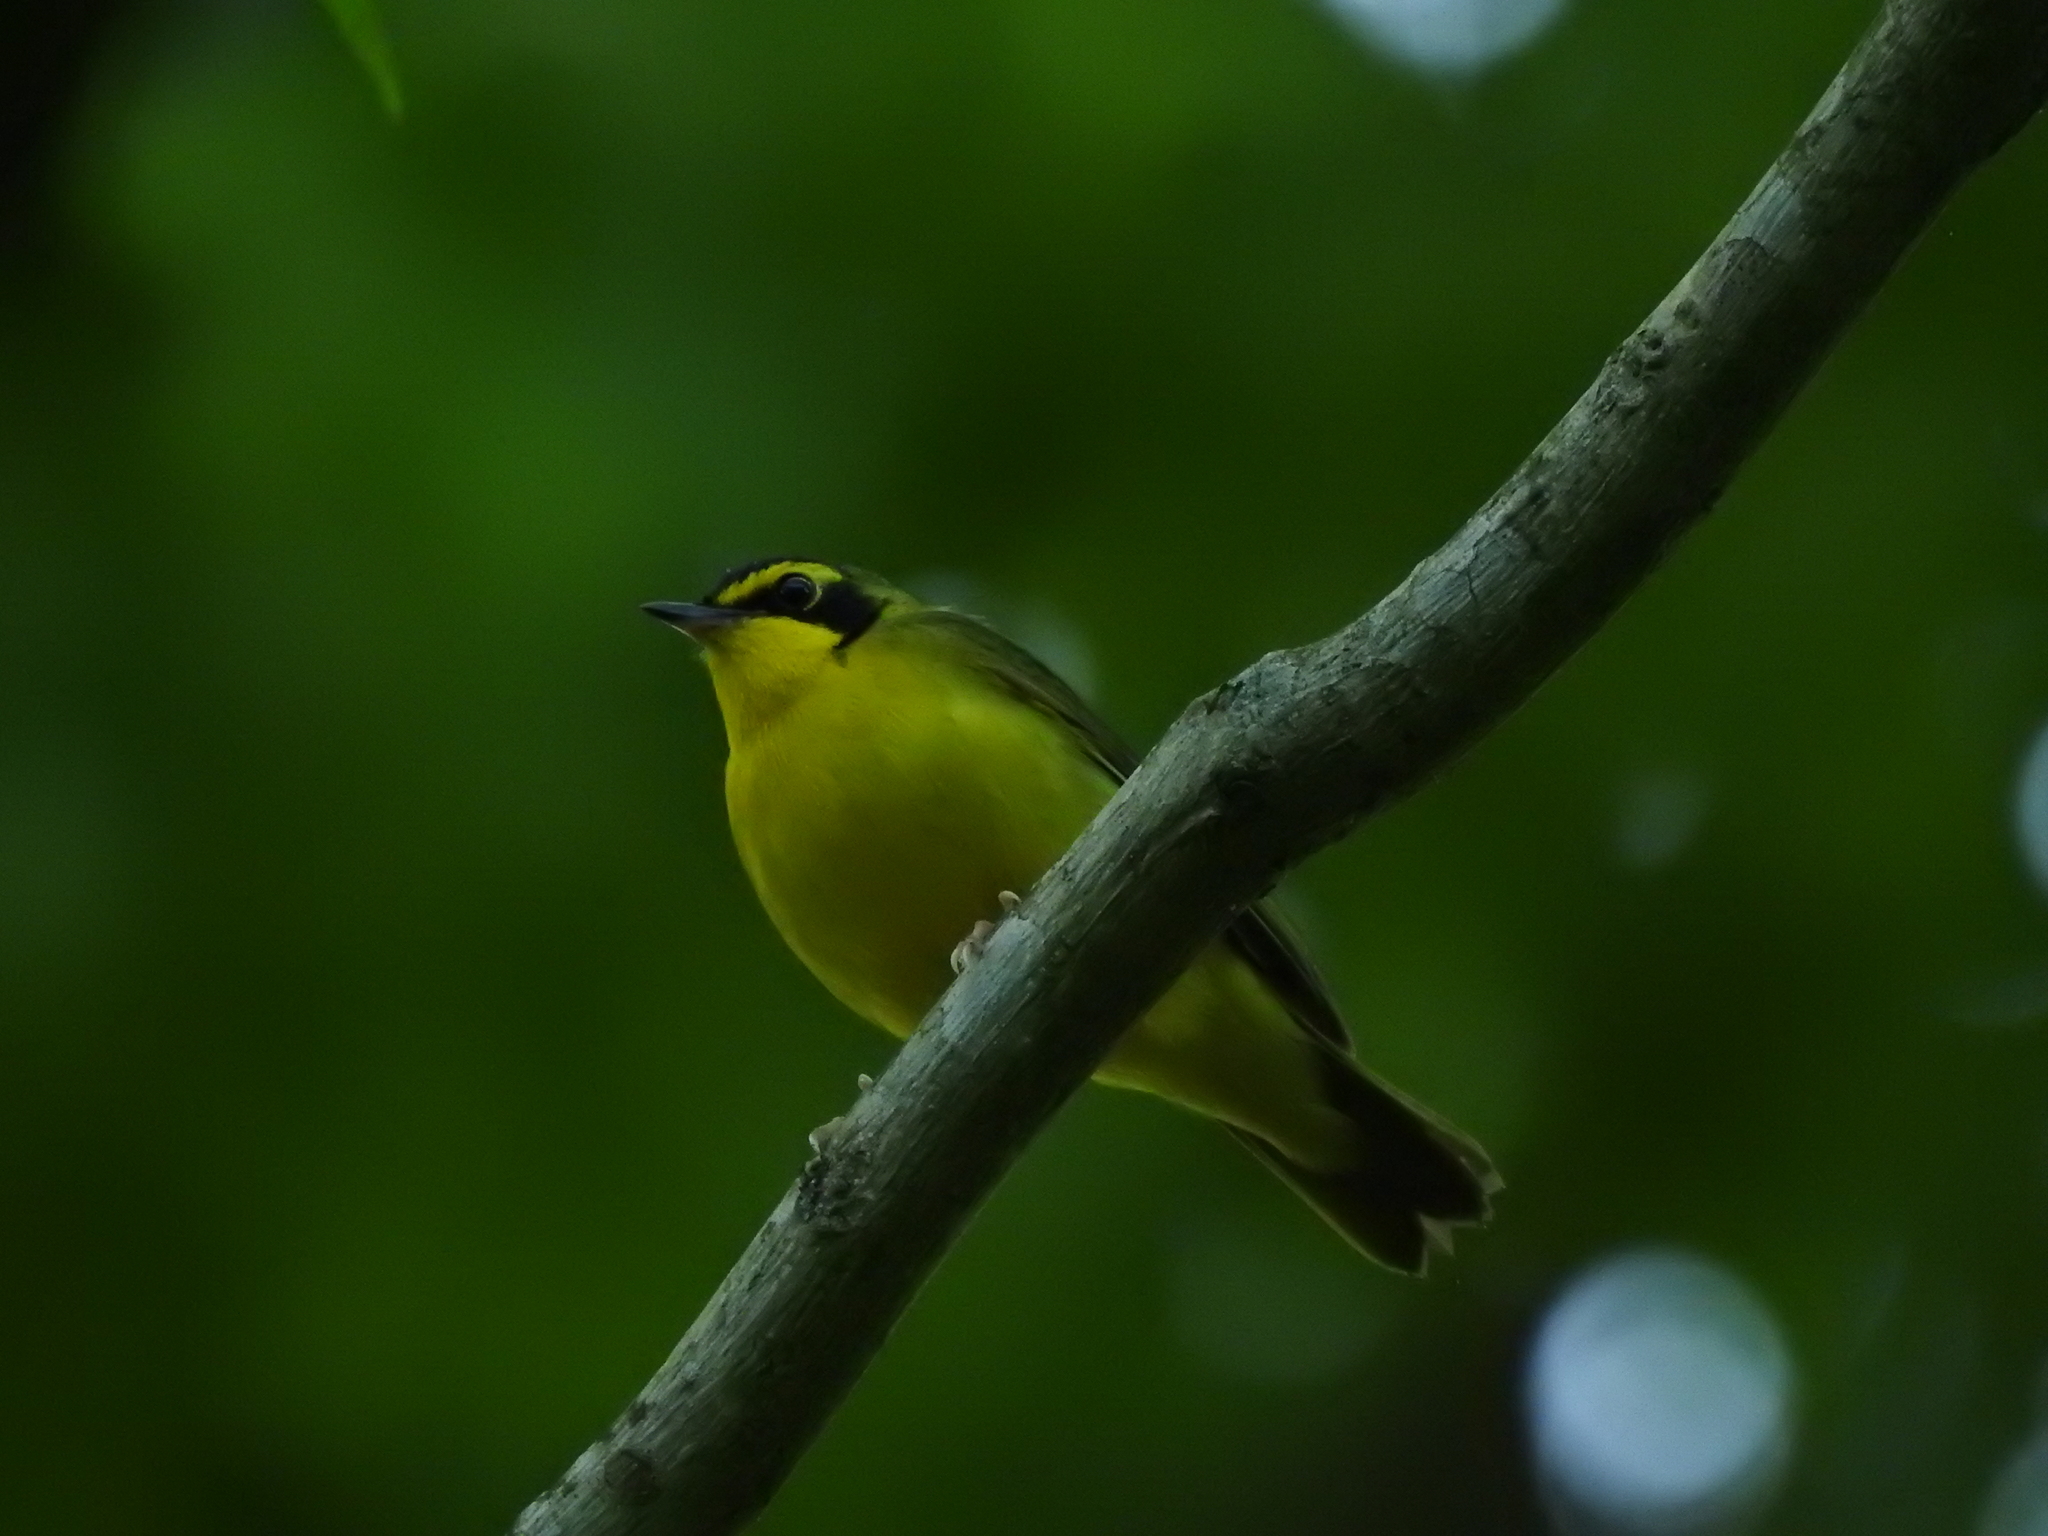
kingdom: Animalia
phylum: Chordata
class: Aves
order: Passeriformes
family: Parulidae
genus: Geothlypis
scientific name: Geothlypis formosa
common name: Kentucky warbler
